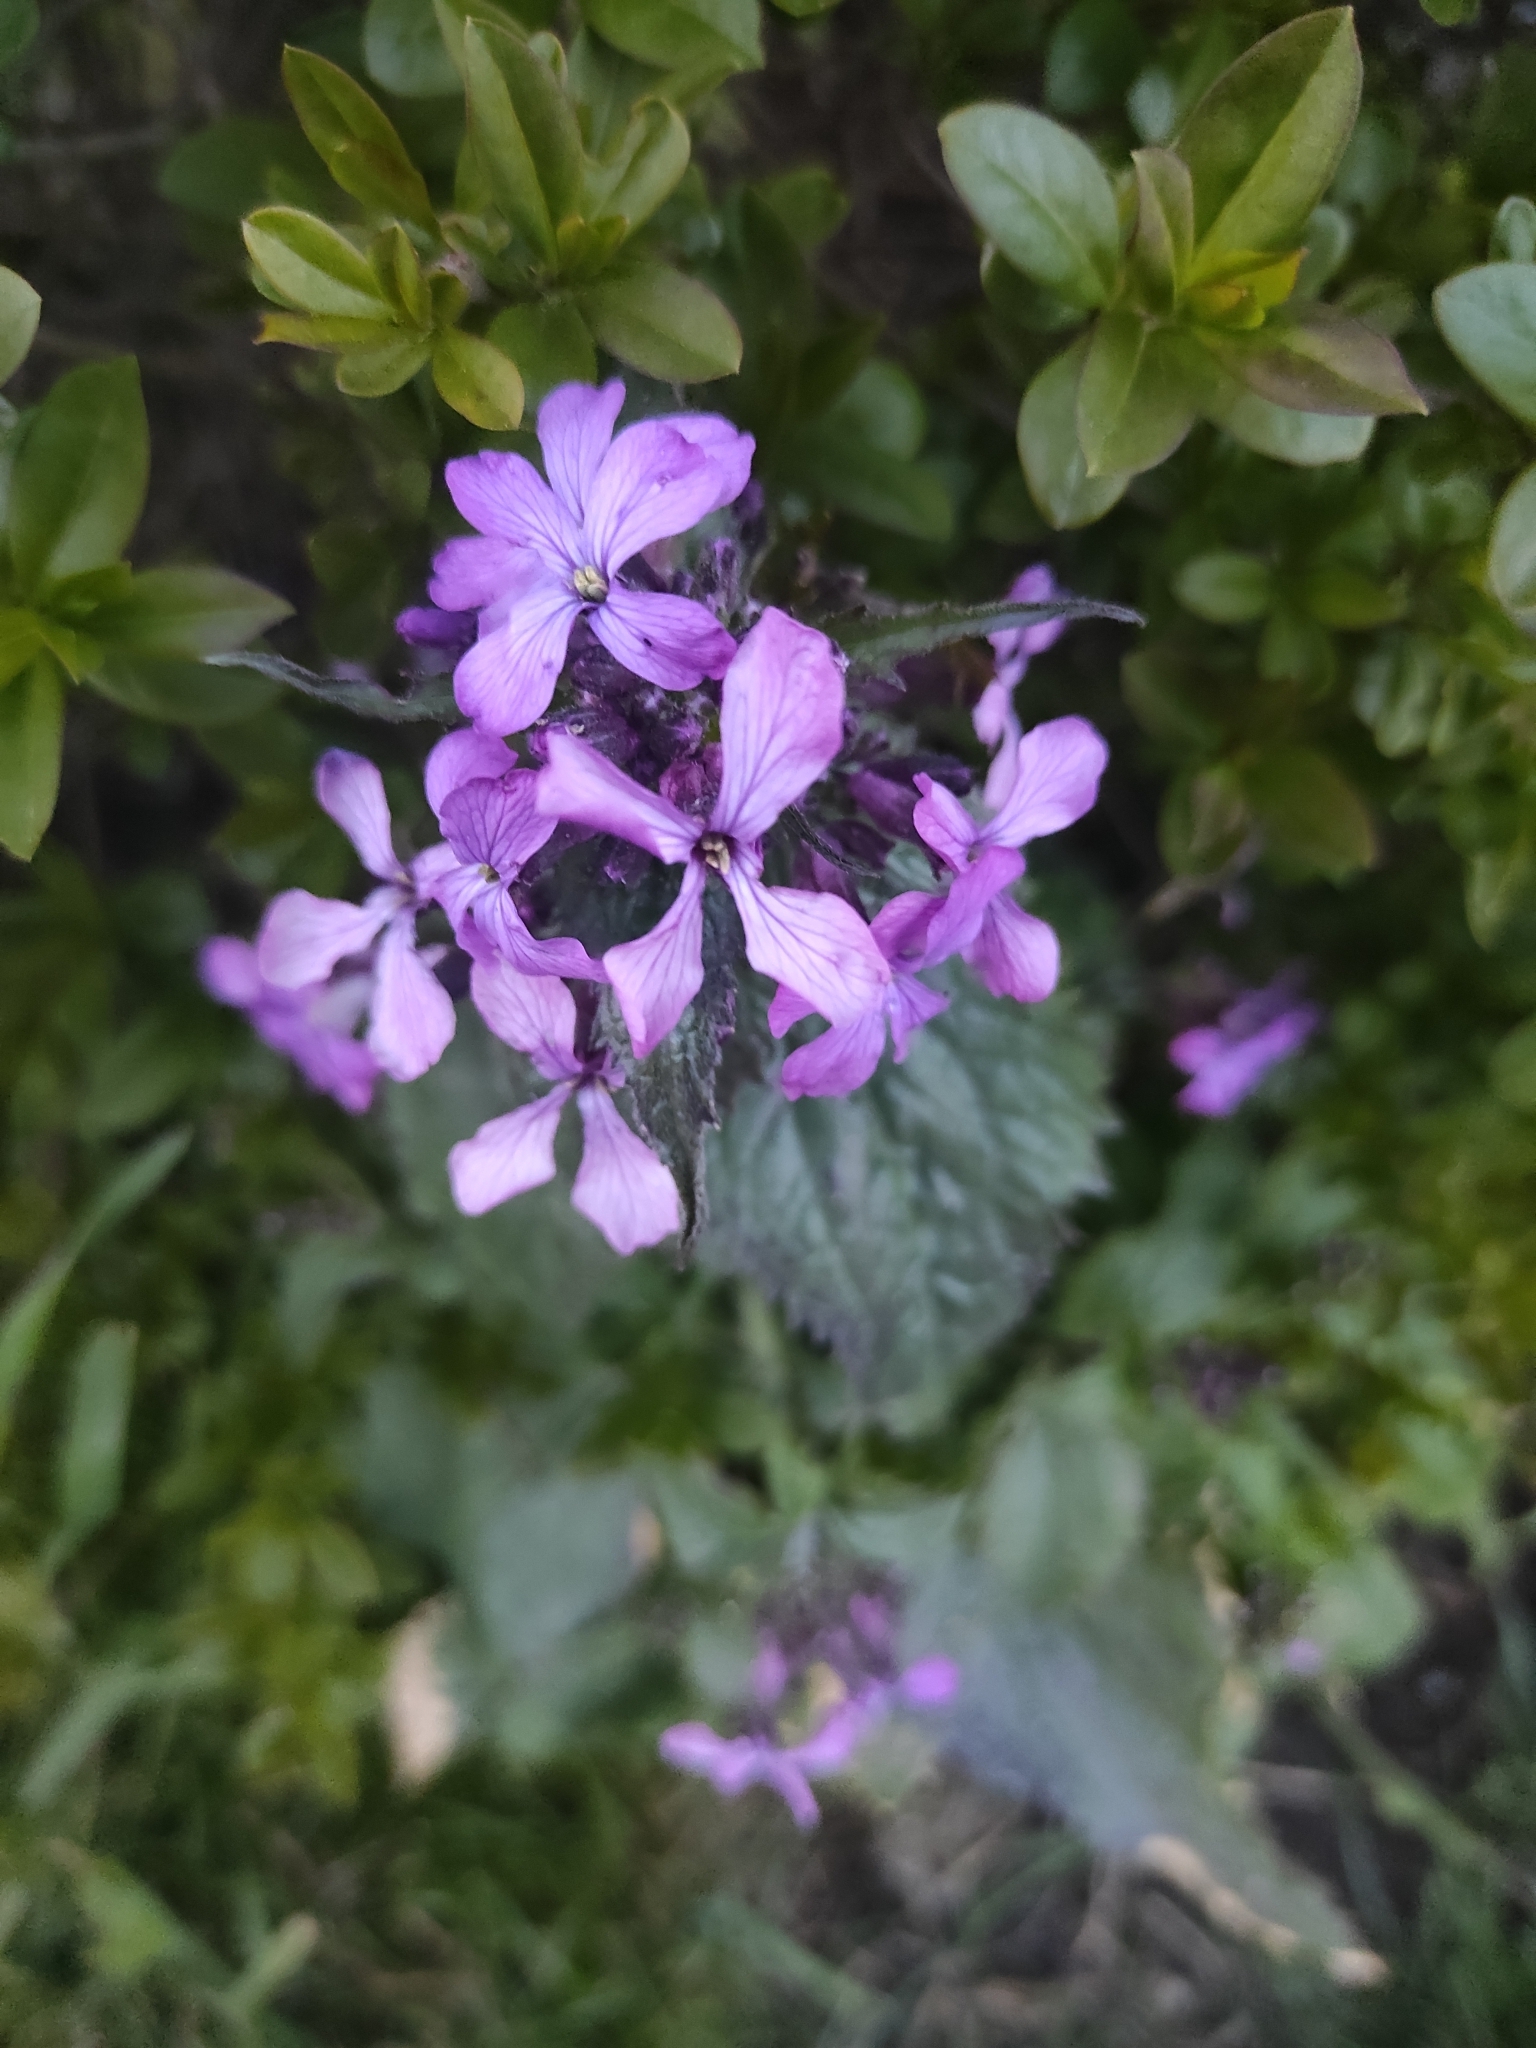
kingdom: Plantae
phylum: Tracheophyta
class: Magnoliopsida
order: Brassicales
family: Brassicaceae
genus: Lunaria
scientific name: Lunaria annua
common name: Honesty
